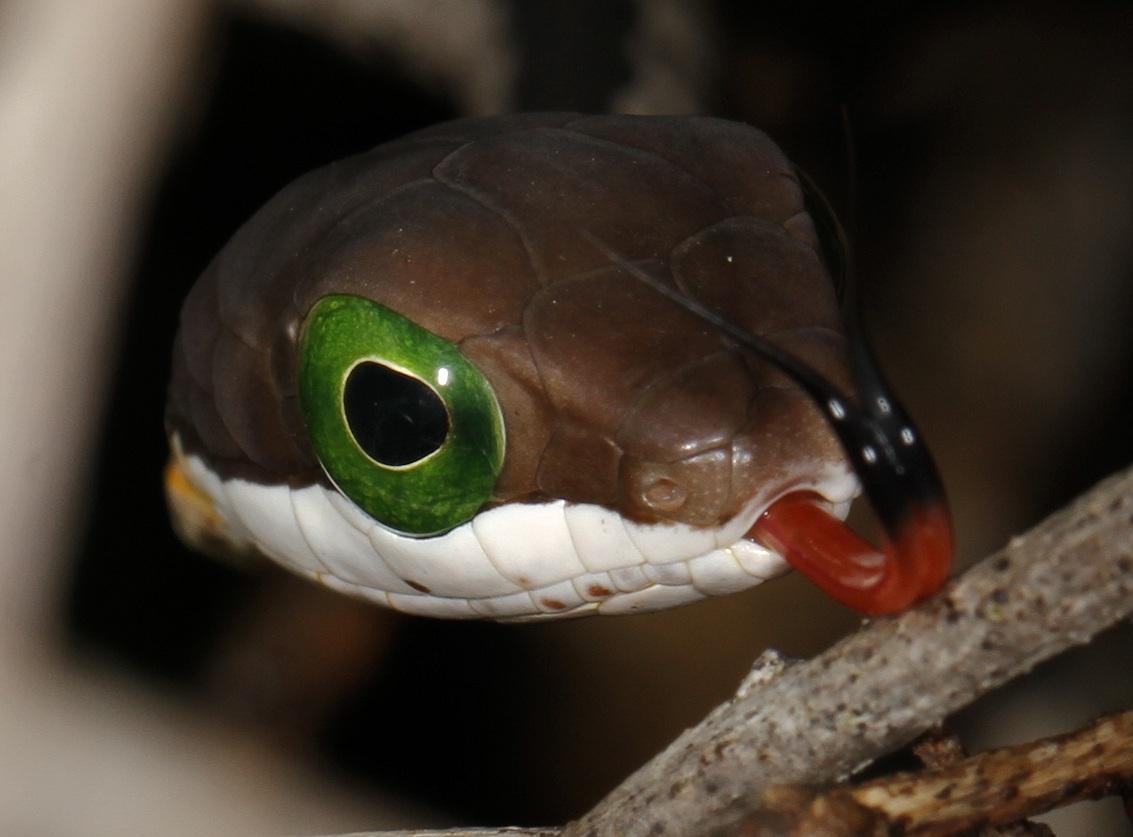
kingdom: Animalia
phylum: Chordata
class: Squamata
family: Colubridae
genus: Dispholidus
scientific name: Dispholidus typus
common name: Boomslang
